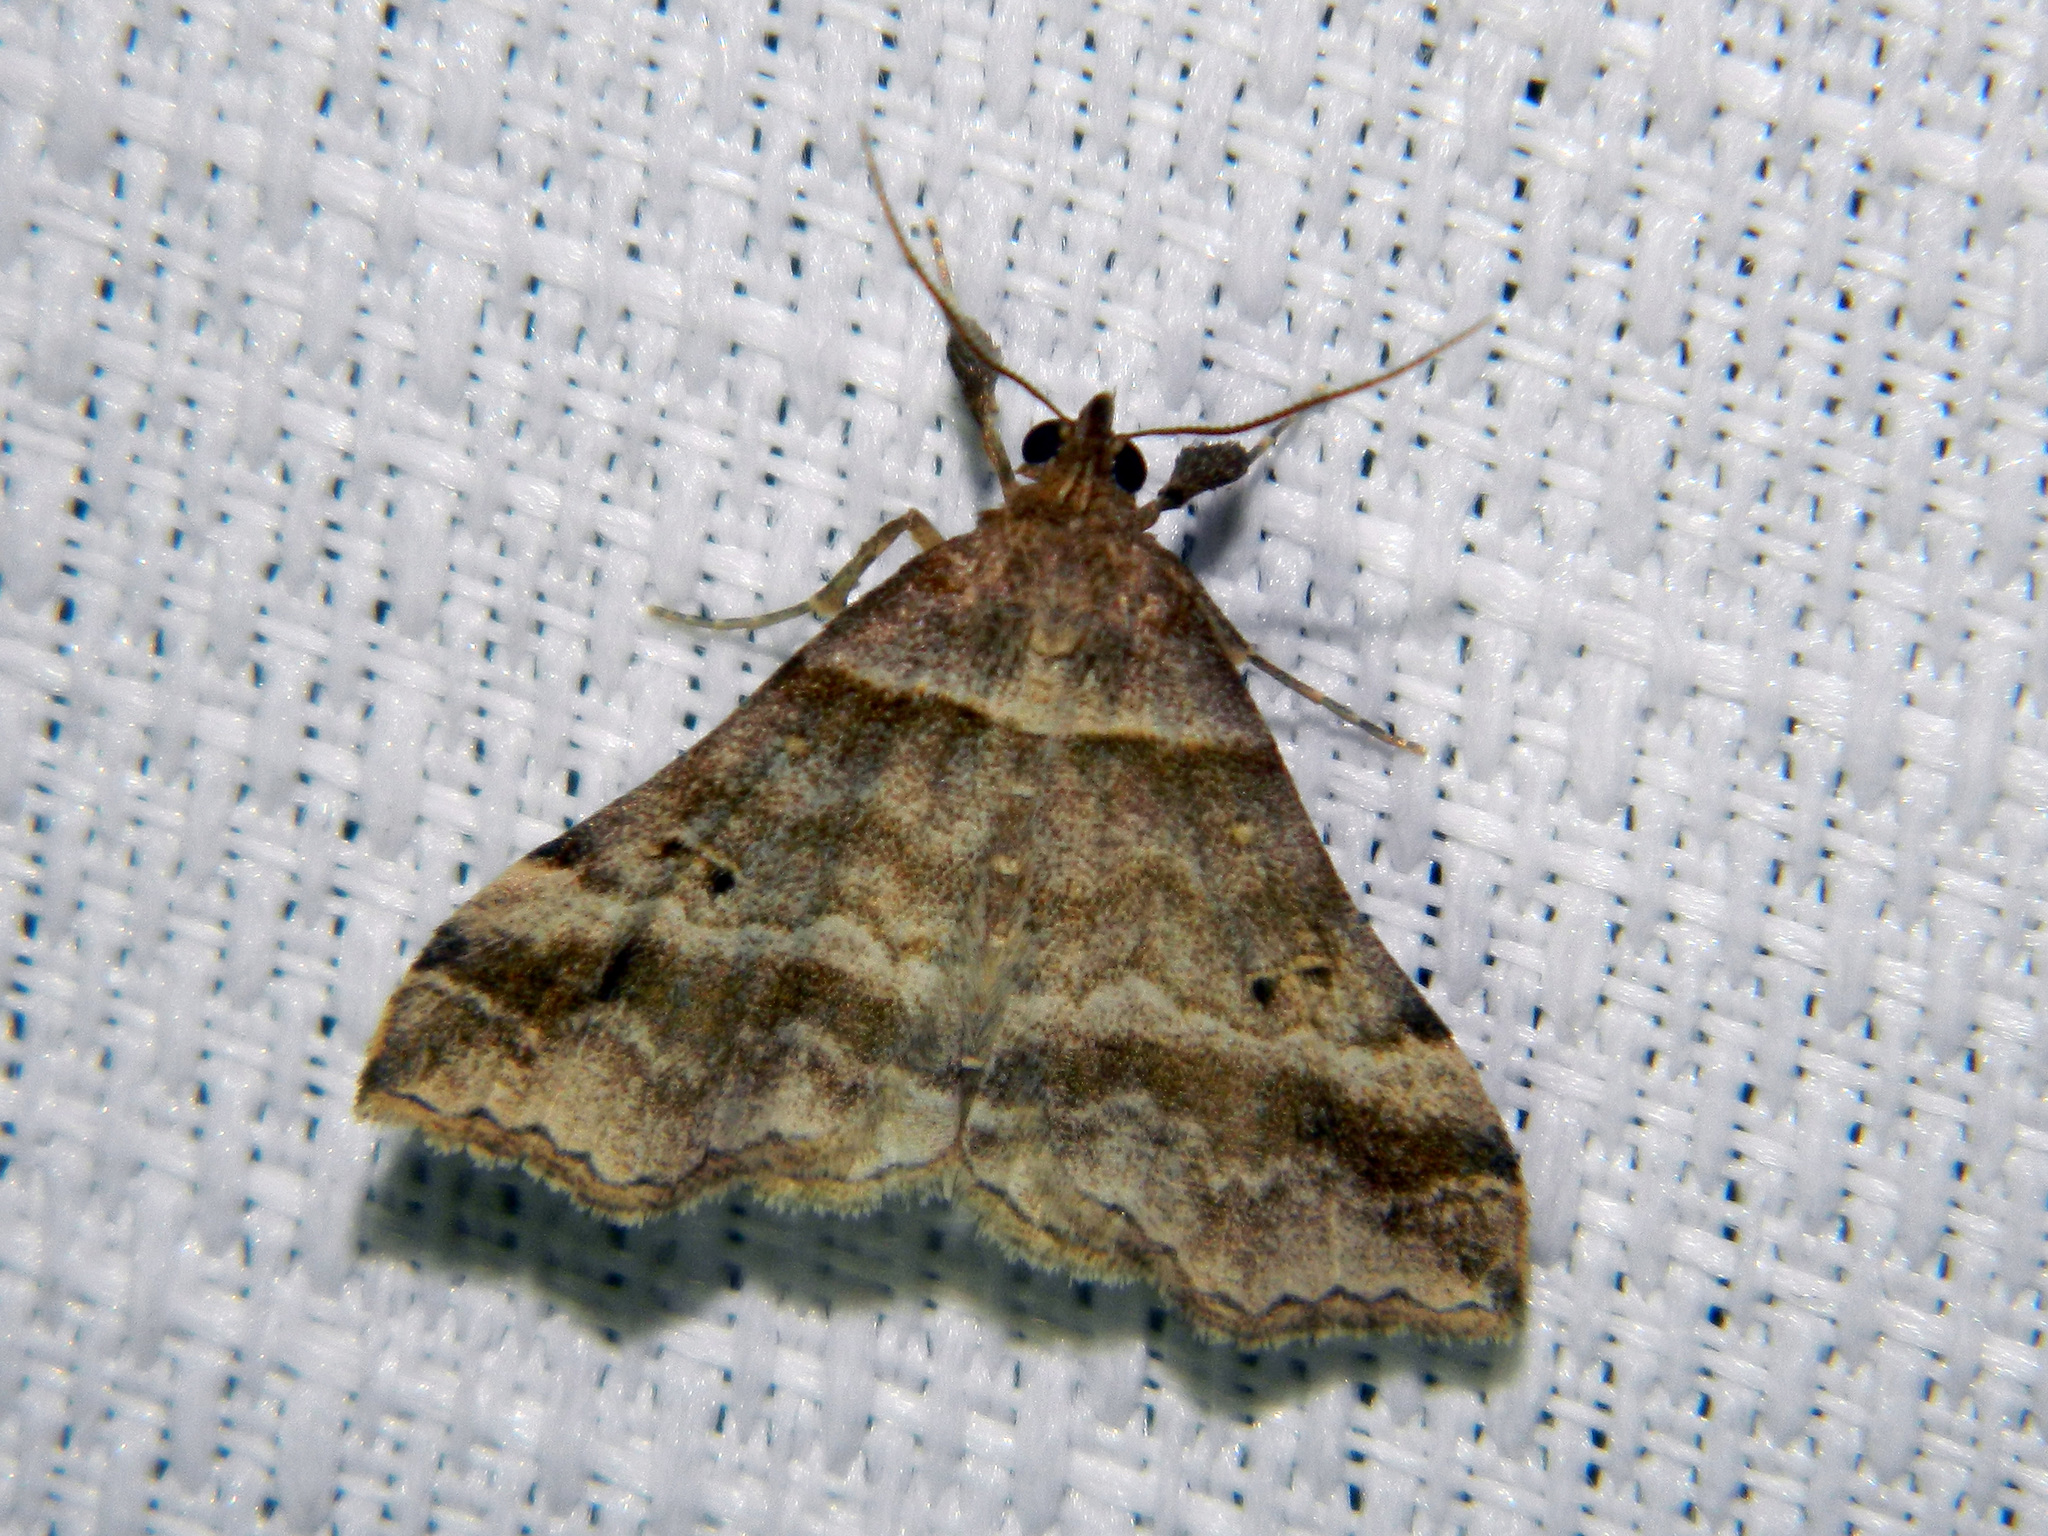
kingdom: Animalia
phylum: Arthropoda
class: Insecta
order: Lepidoptera
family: Erebidae
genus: Phaeolita
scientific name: Phaeolita pyramusalis
